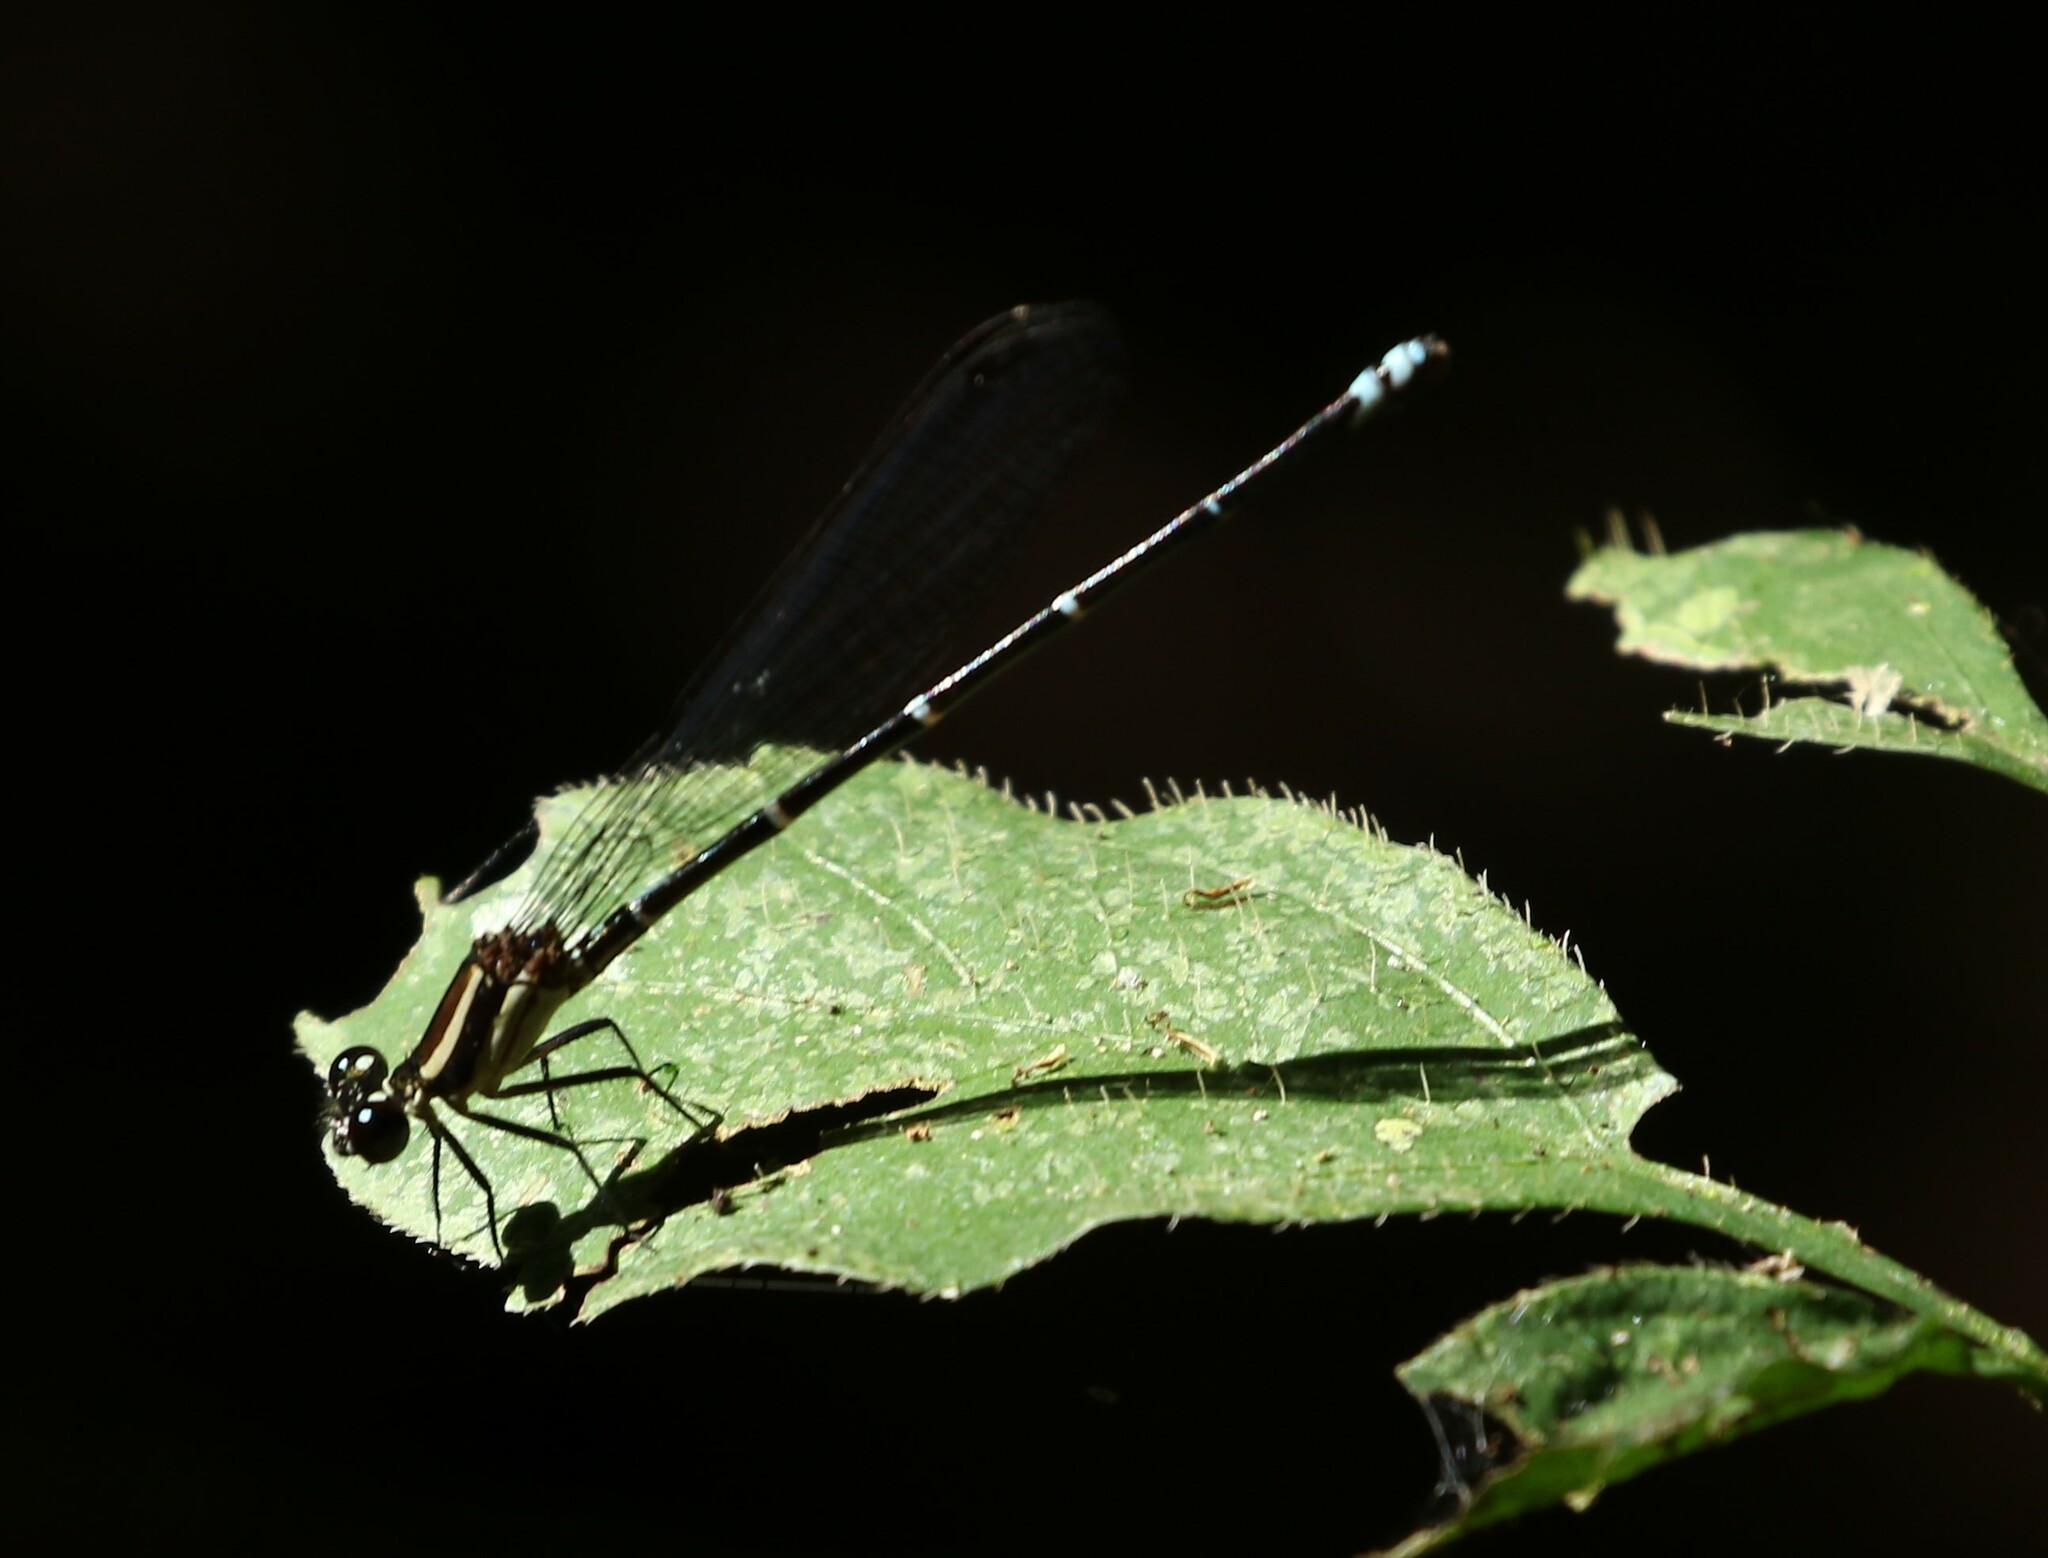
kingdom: Animalia
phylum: Arthropoda
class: Insecta
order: Odonata
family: Coenagrionidae
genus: Argia
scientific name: Argia oculata
